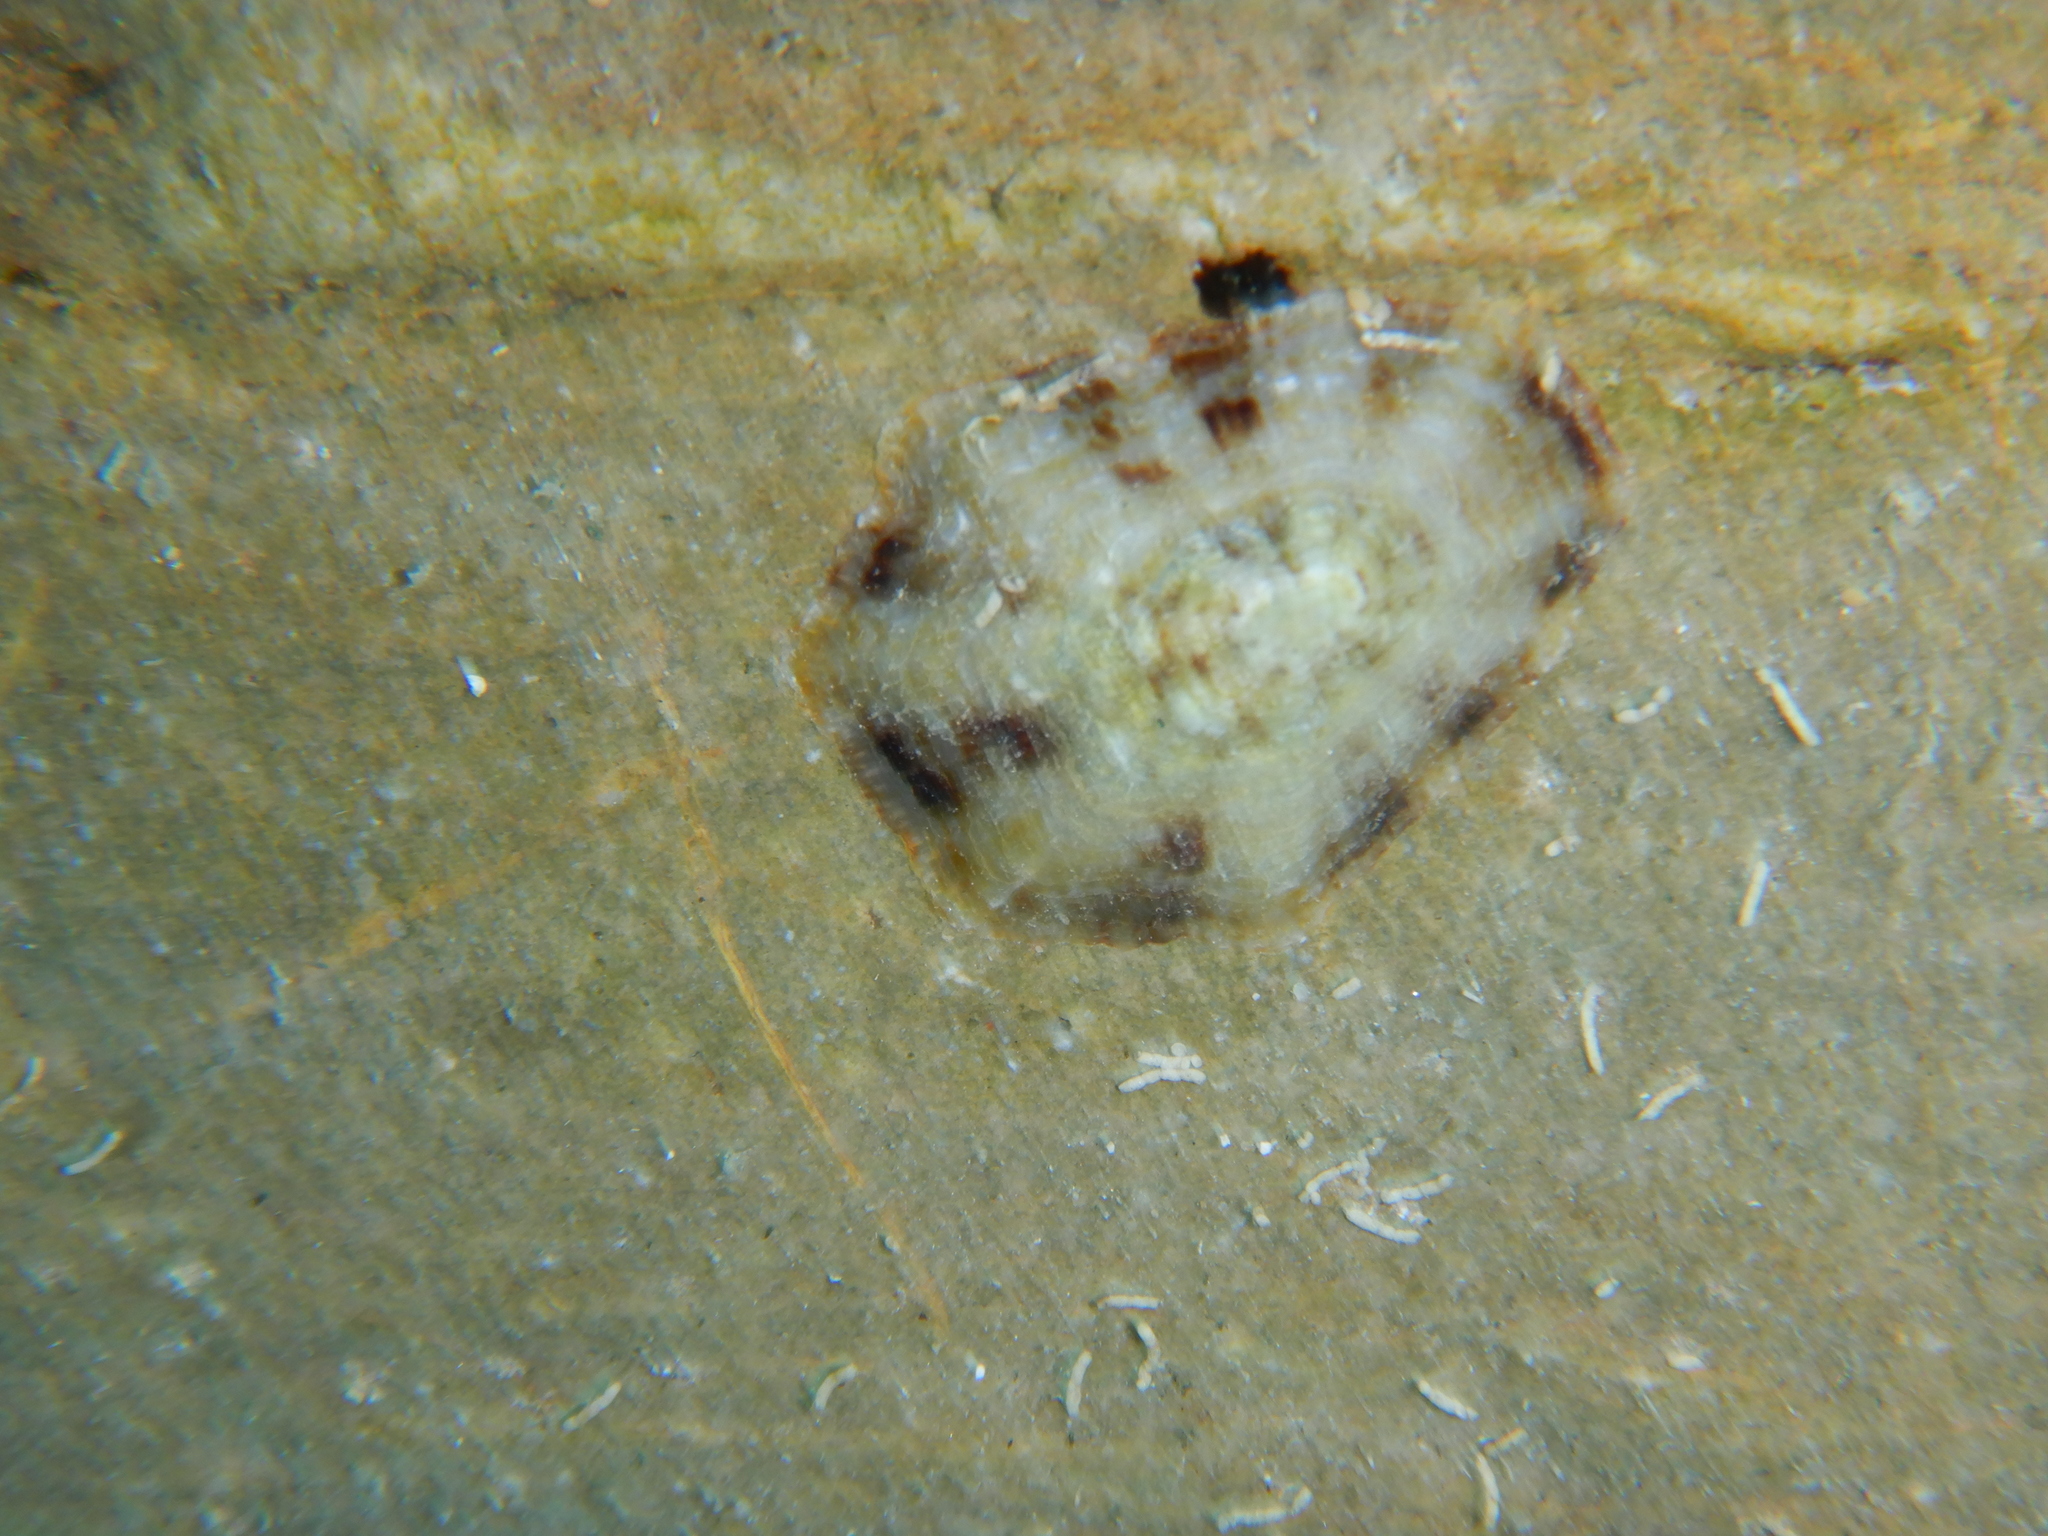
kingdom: Animalia
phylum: Mollusca
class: Gastropoda
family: Patellidae
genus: Patella
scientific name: Patella ulyssiponensis
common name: China limpet
